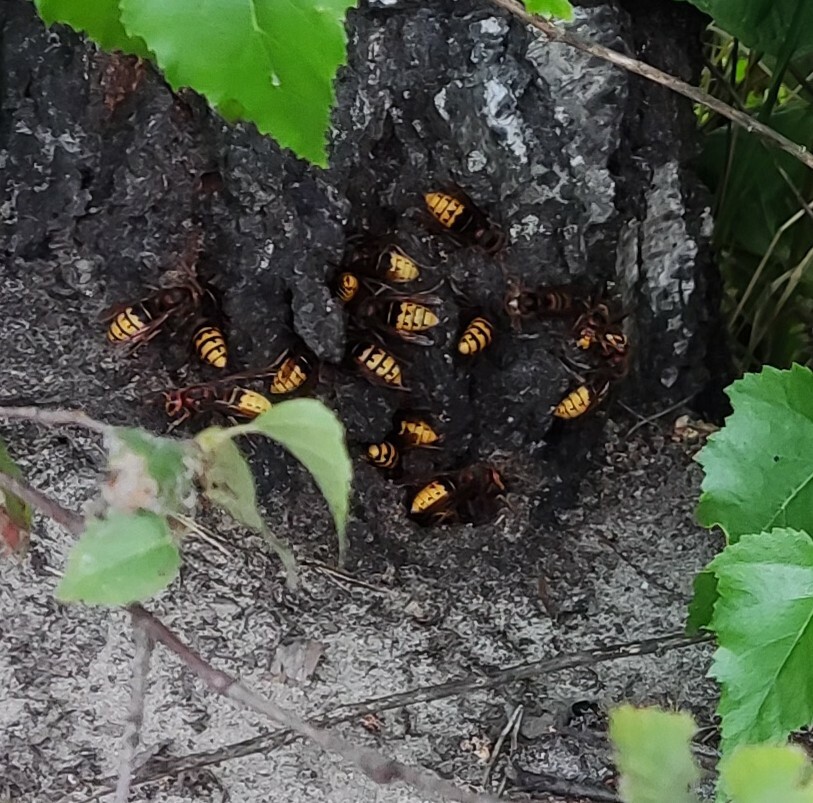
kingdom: Animalia
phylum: Arthropoda
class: Insecta
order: Hymenoptera
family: Vespidae
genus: Vespa
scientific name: Vespa crabro
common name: Hornet
